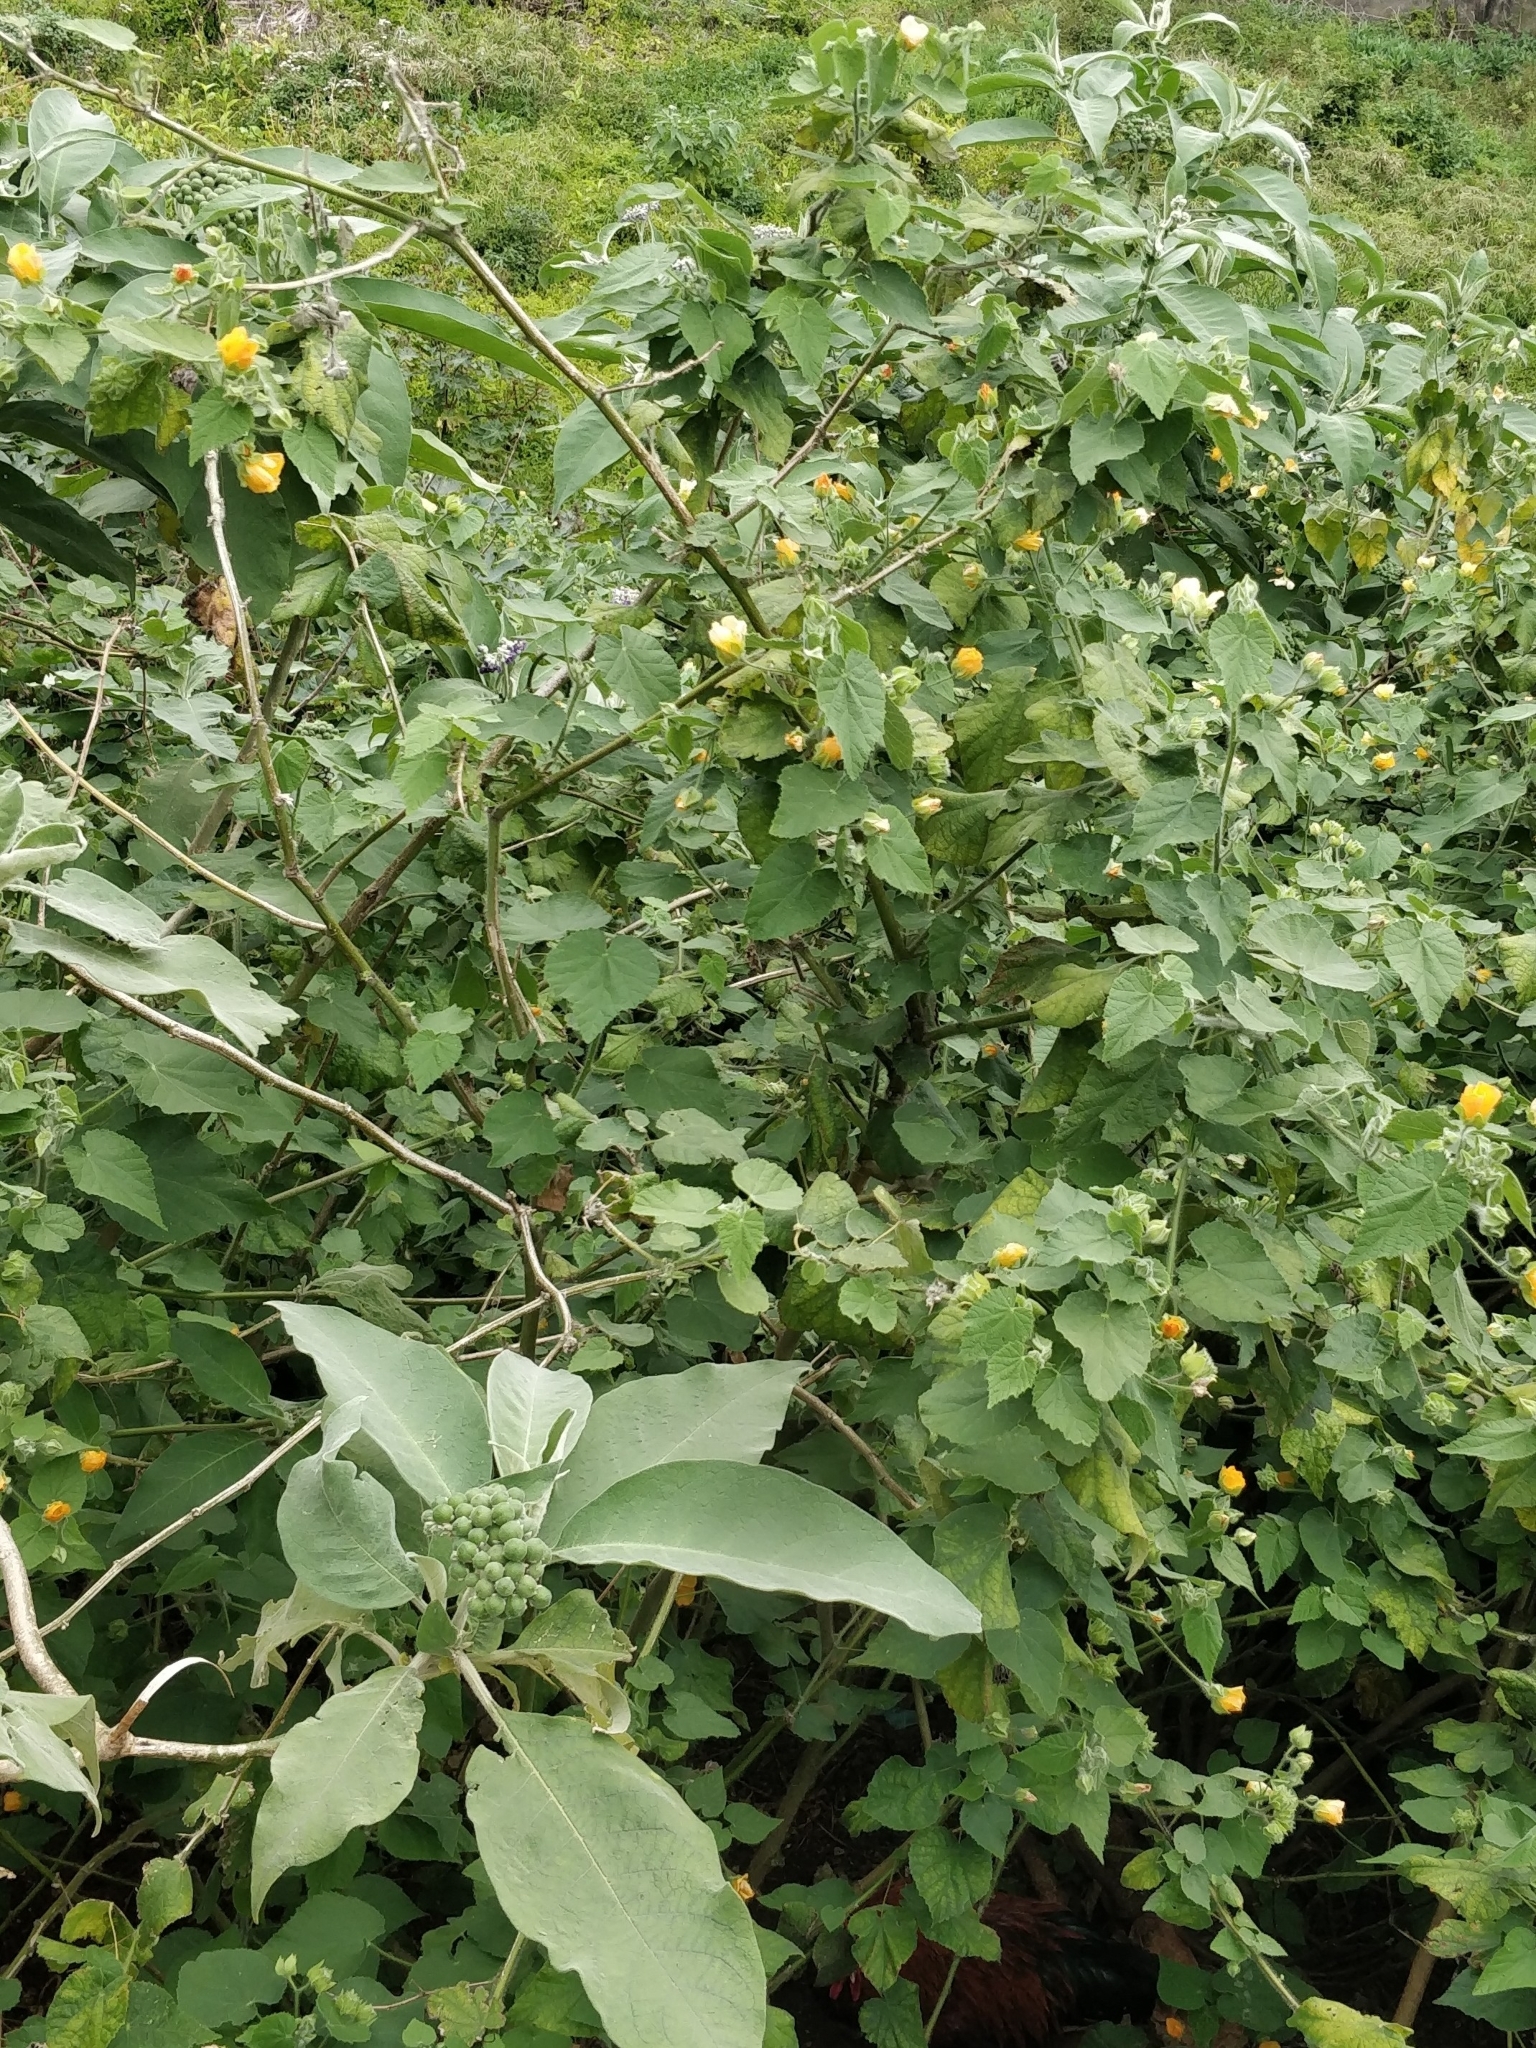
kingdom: Plantae
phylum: Tracheophyta
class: Magnoliopsida
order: Solanales
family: Solanaceae
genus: Solanum
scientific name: Solanum mauritianum
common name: Earleaf nightshade
